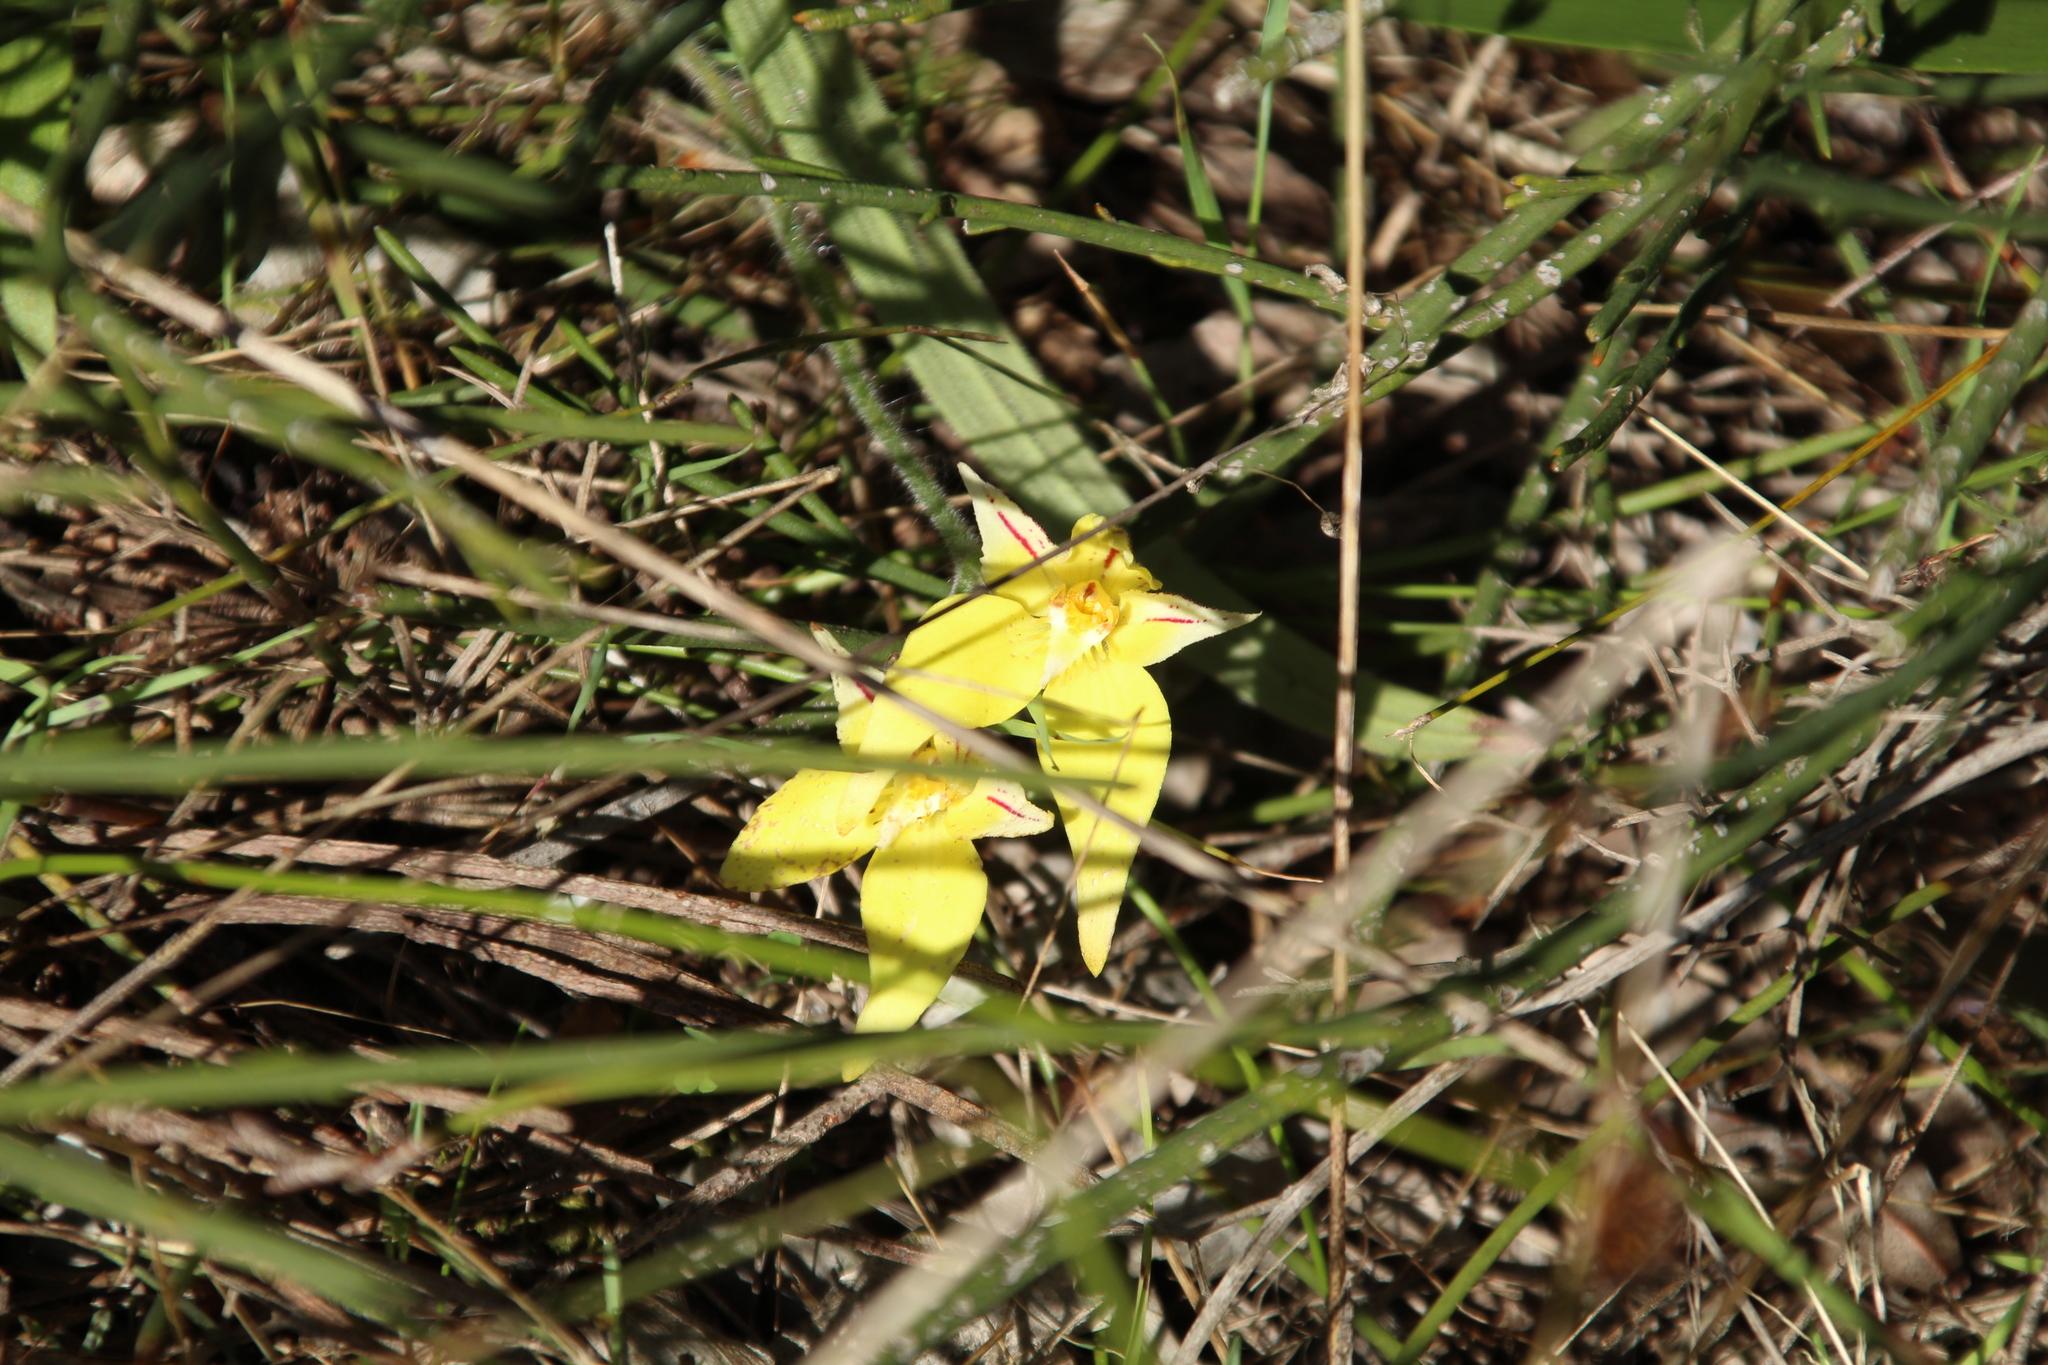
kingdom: Plantae
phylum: Tracheophyta
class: Liliopsida
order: Asparagales
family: Orchidaceae
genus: Caladenia
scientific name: Caladenia flava
